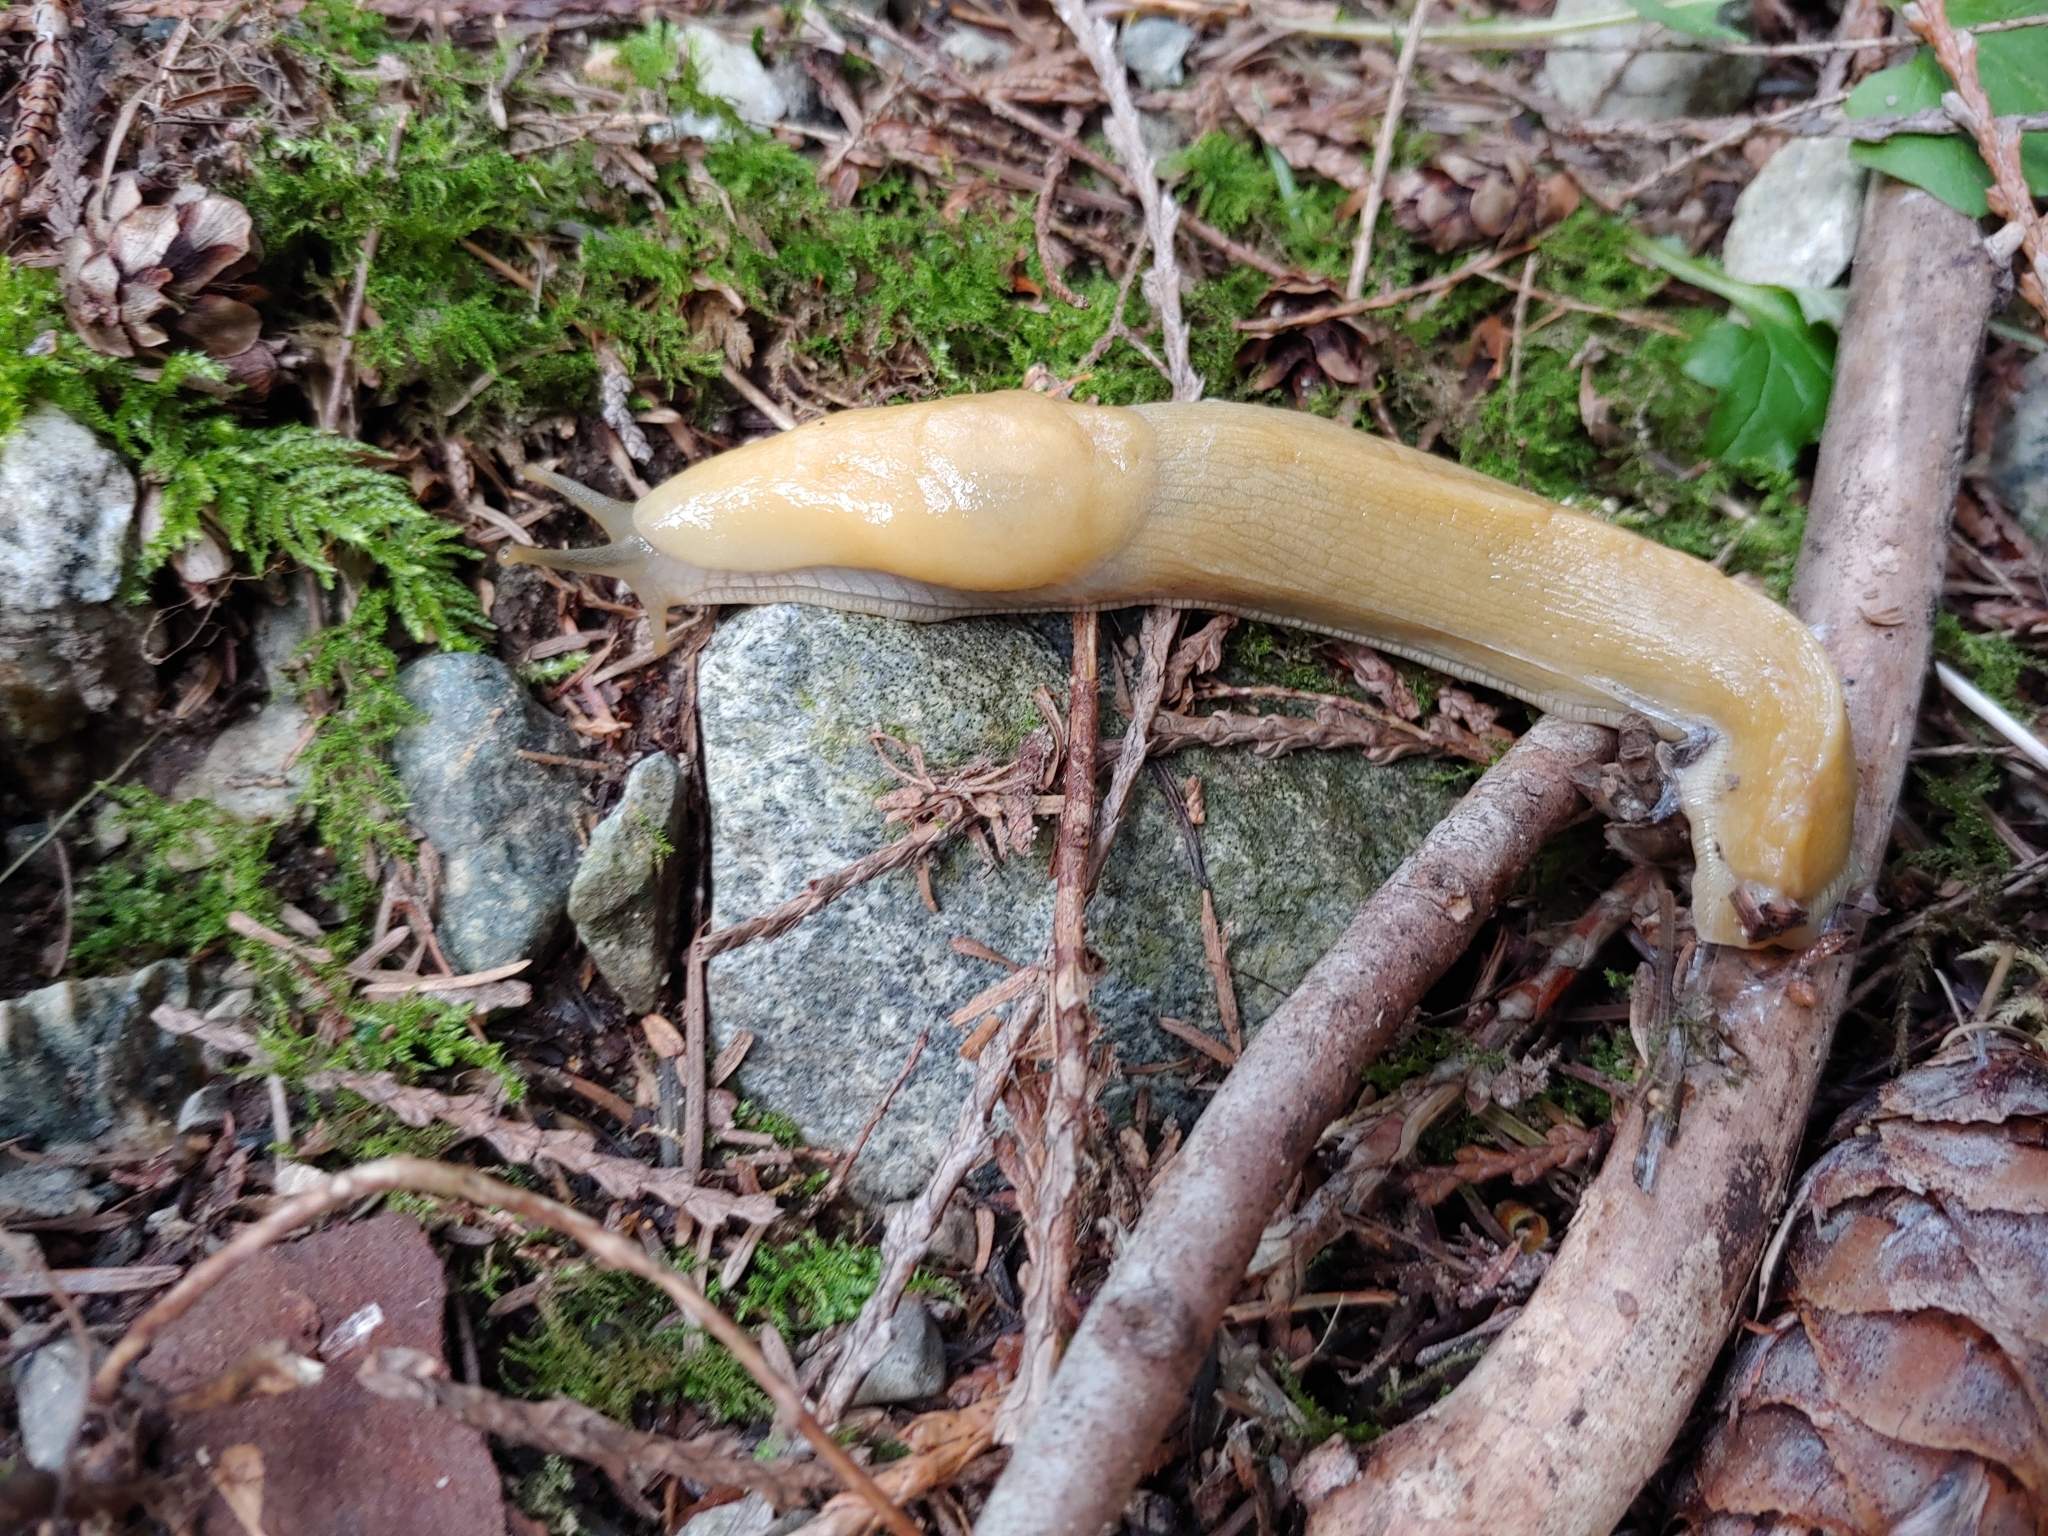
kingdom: Animalia
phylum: Mollusca
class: Gastropoda
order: Stylommatophora
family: Ariolimacidae
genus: Ariolimax
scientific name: Ariolimax columbianus
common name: Pacific banana slug
